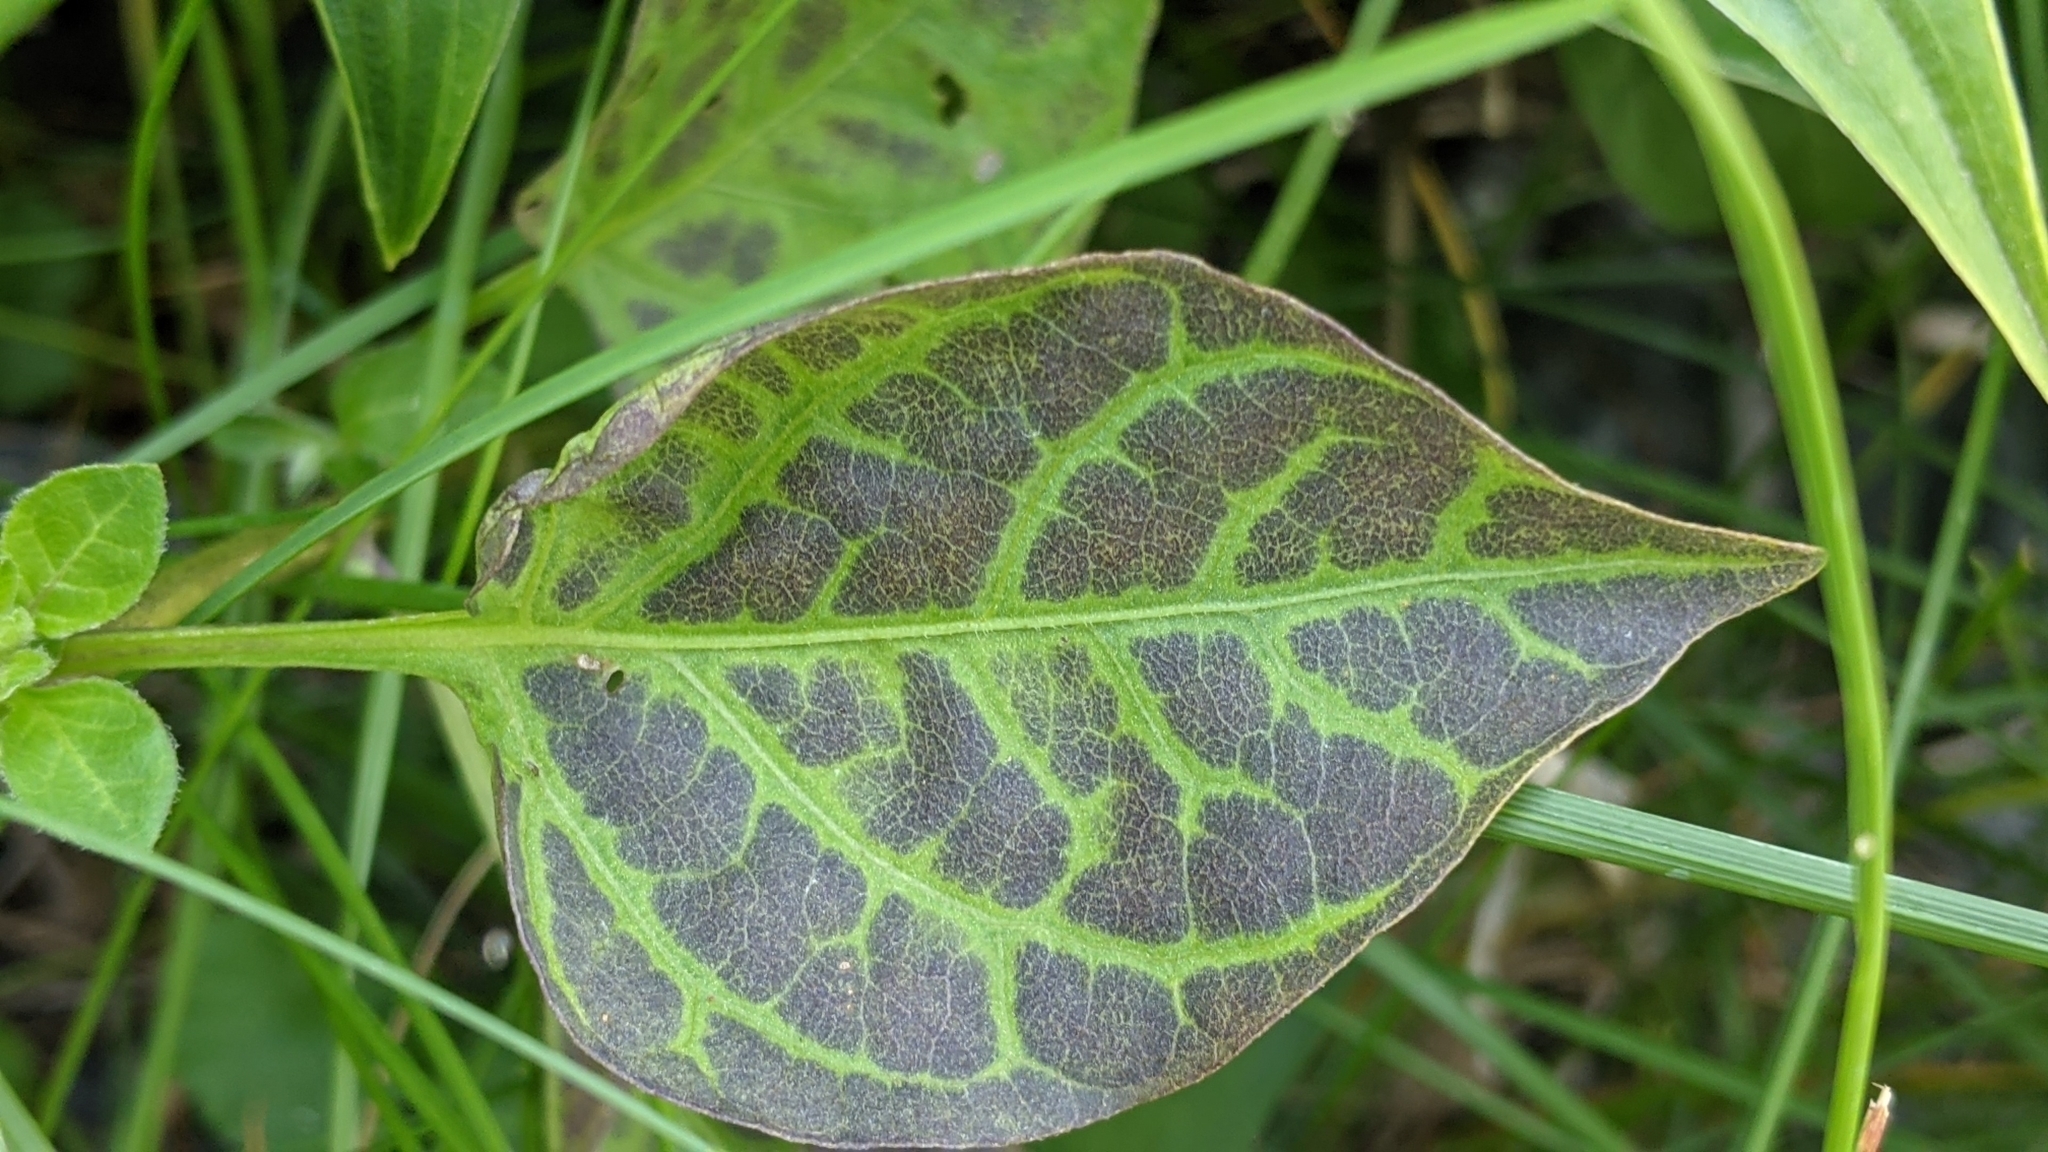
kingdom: Plantae
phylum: Tracheophyta
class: Magnoliopsida
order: Solanales
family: Solanaceae
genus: Solanum
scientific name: Solanum dulcamara
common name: Climbing nightshade
